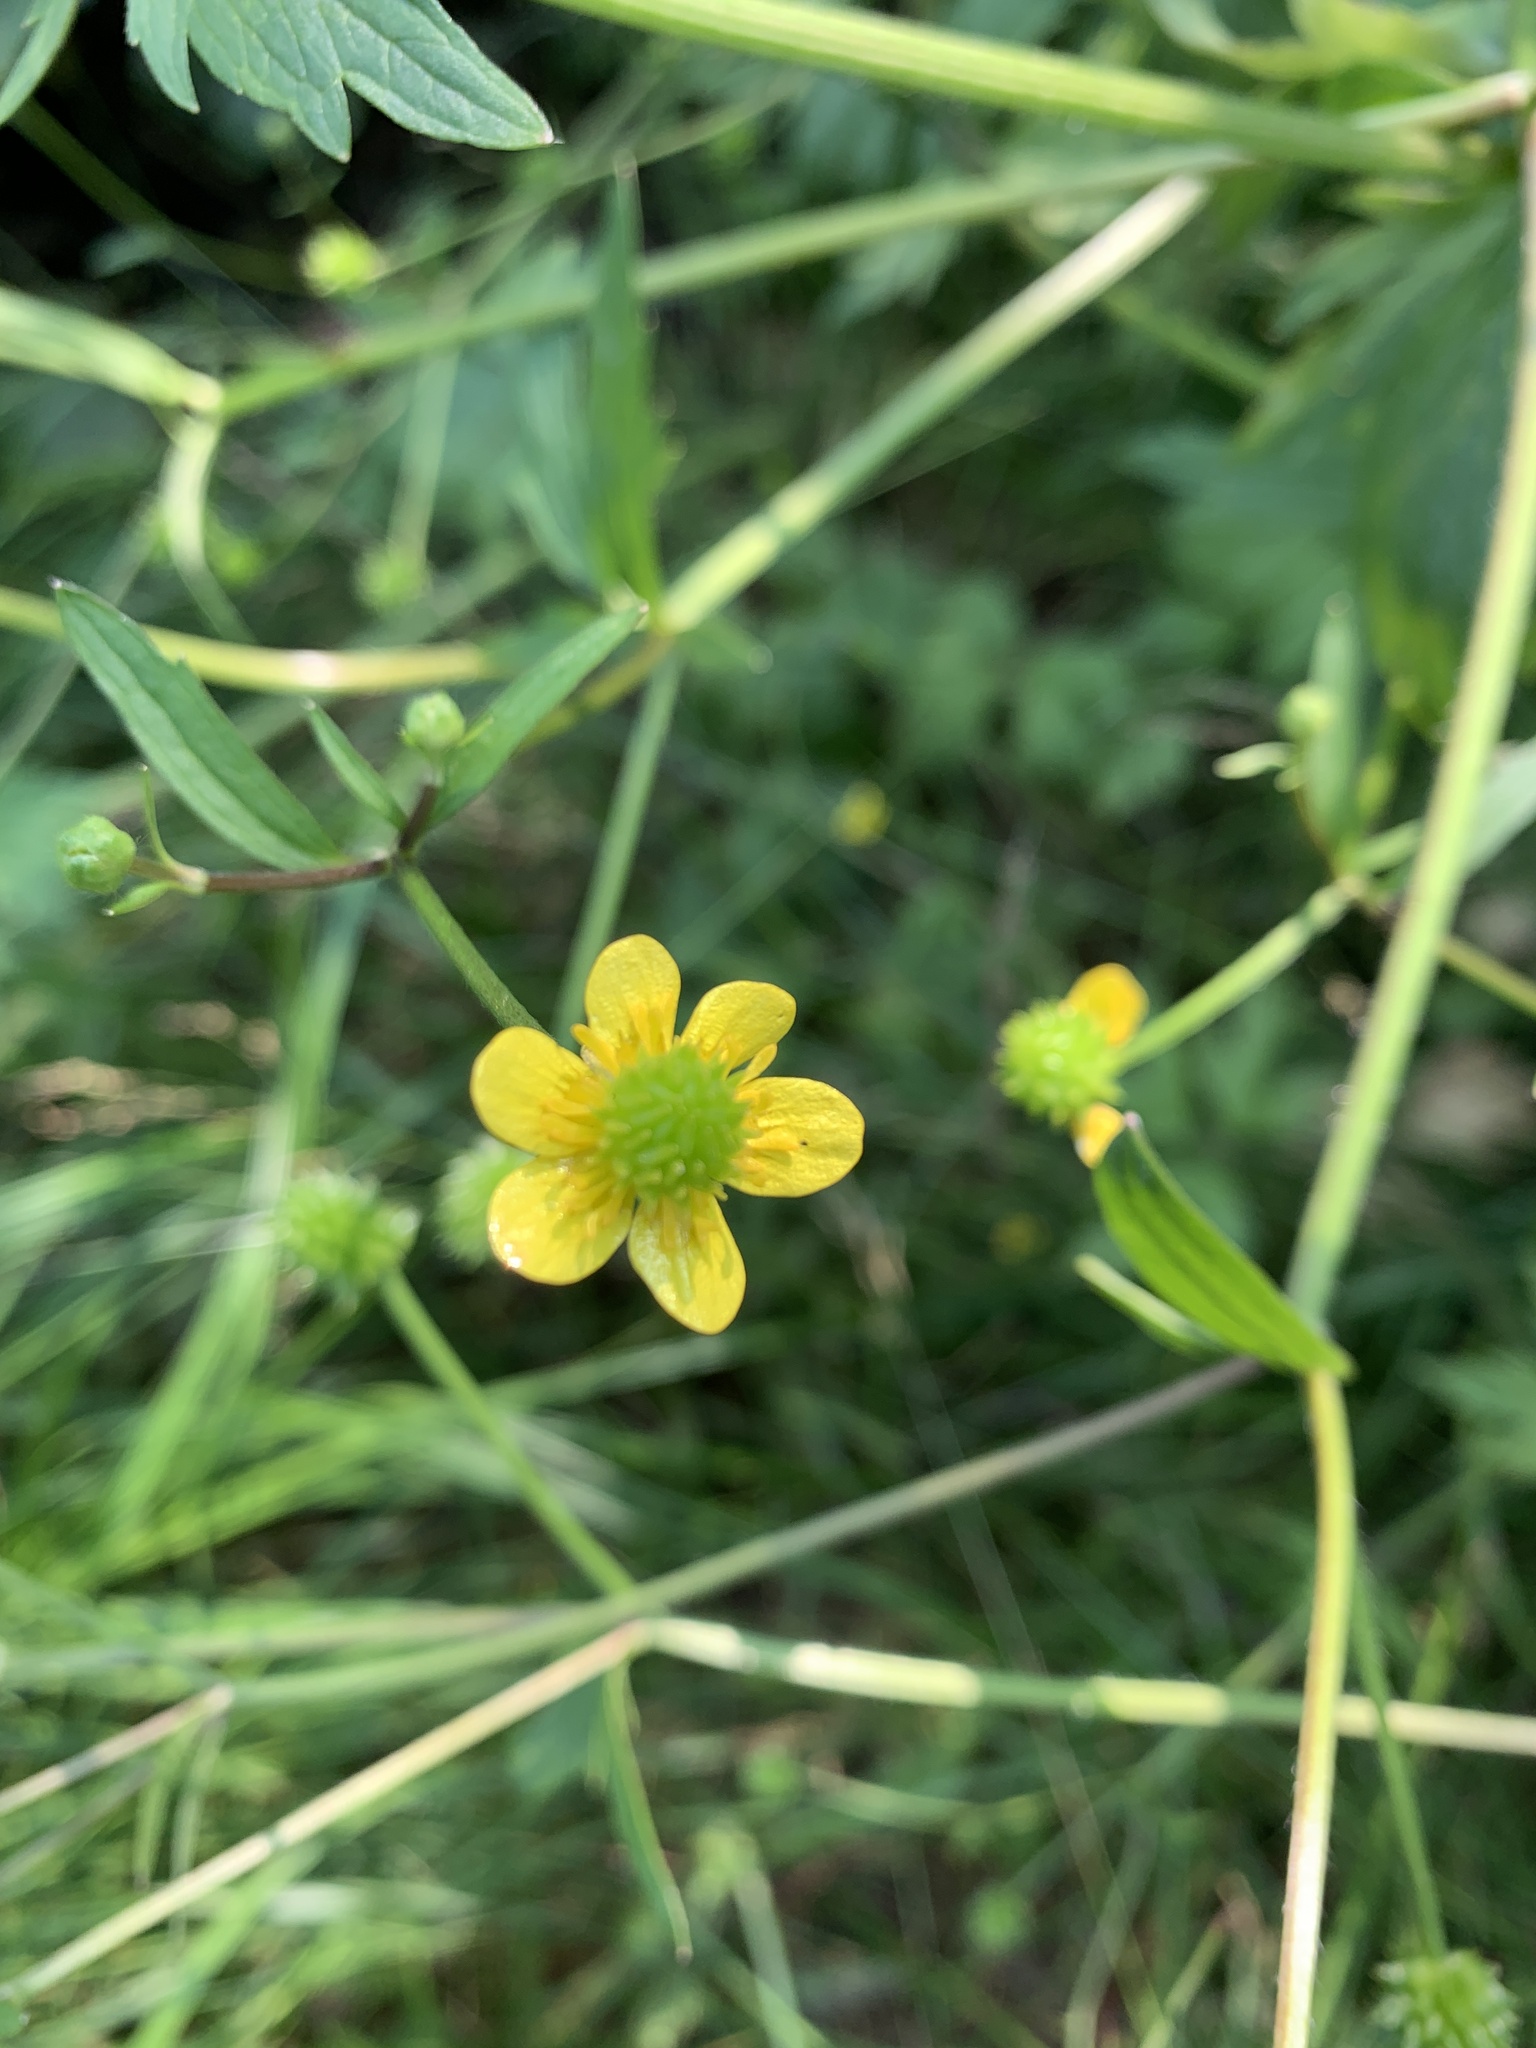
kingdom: Plantae
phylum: Tracheophyta
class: Magnoliopsida
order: Ranunculales
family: Ranunculaceae
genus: Ranunculus
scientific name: Ranunculus macounii
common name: Macoun's buttercup
